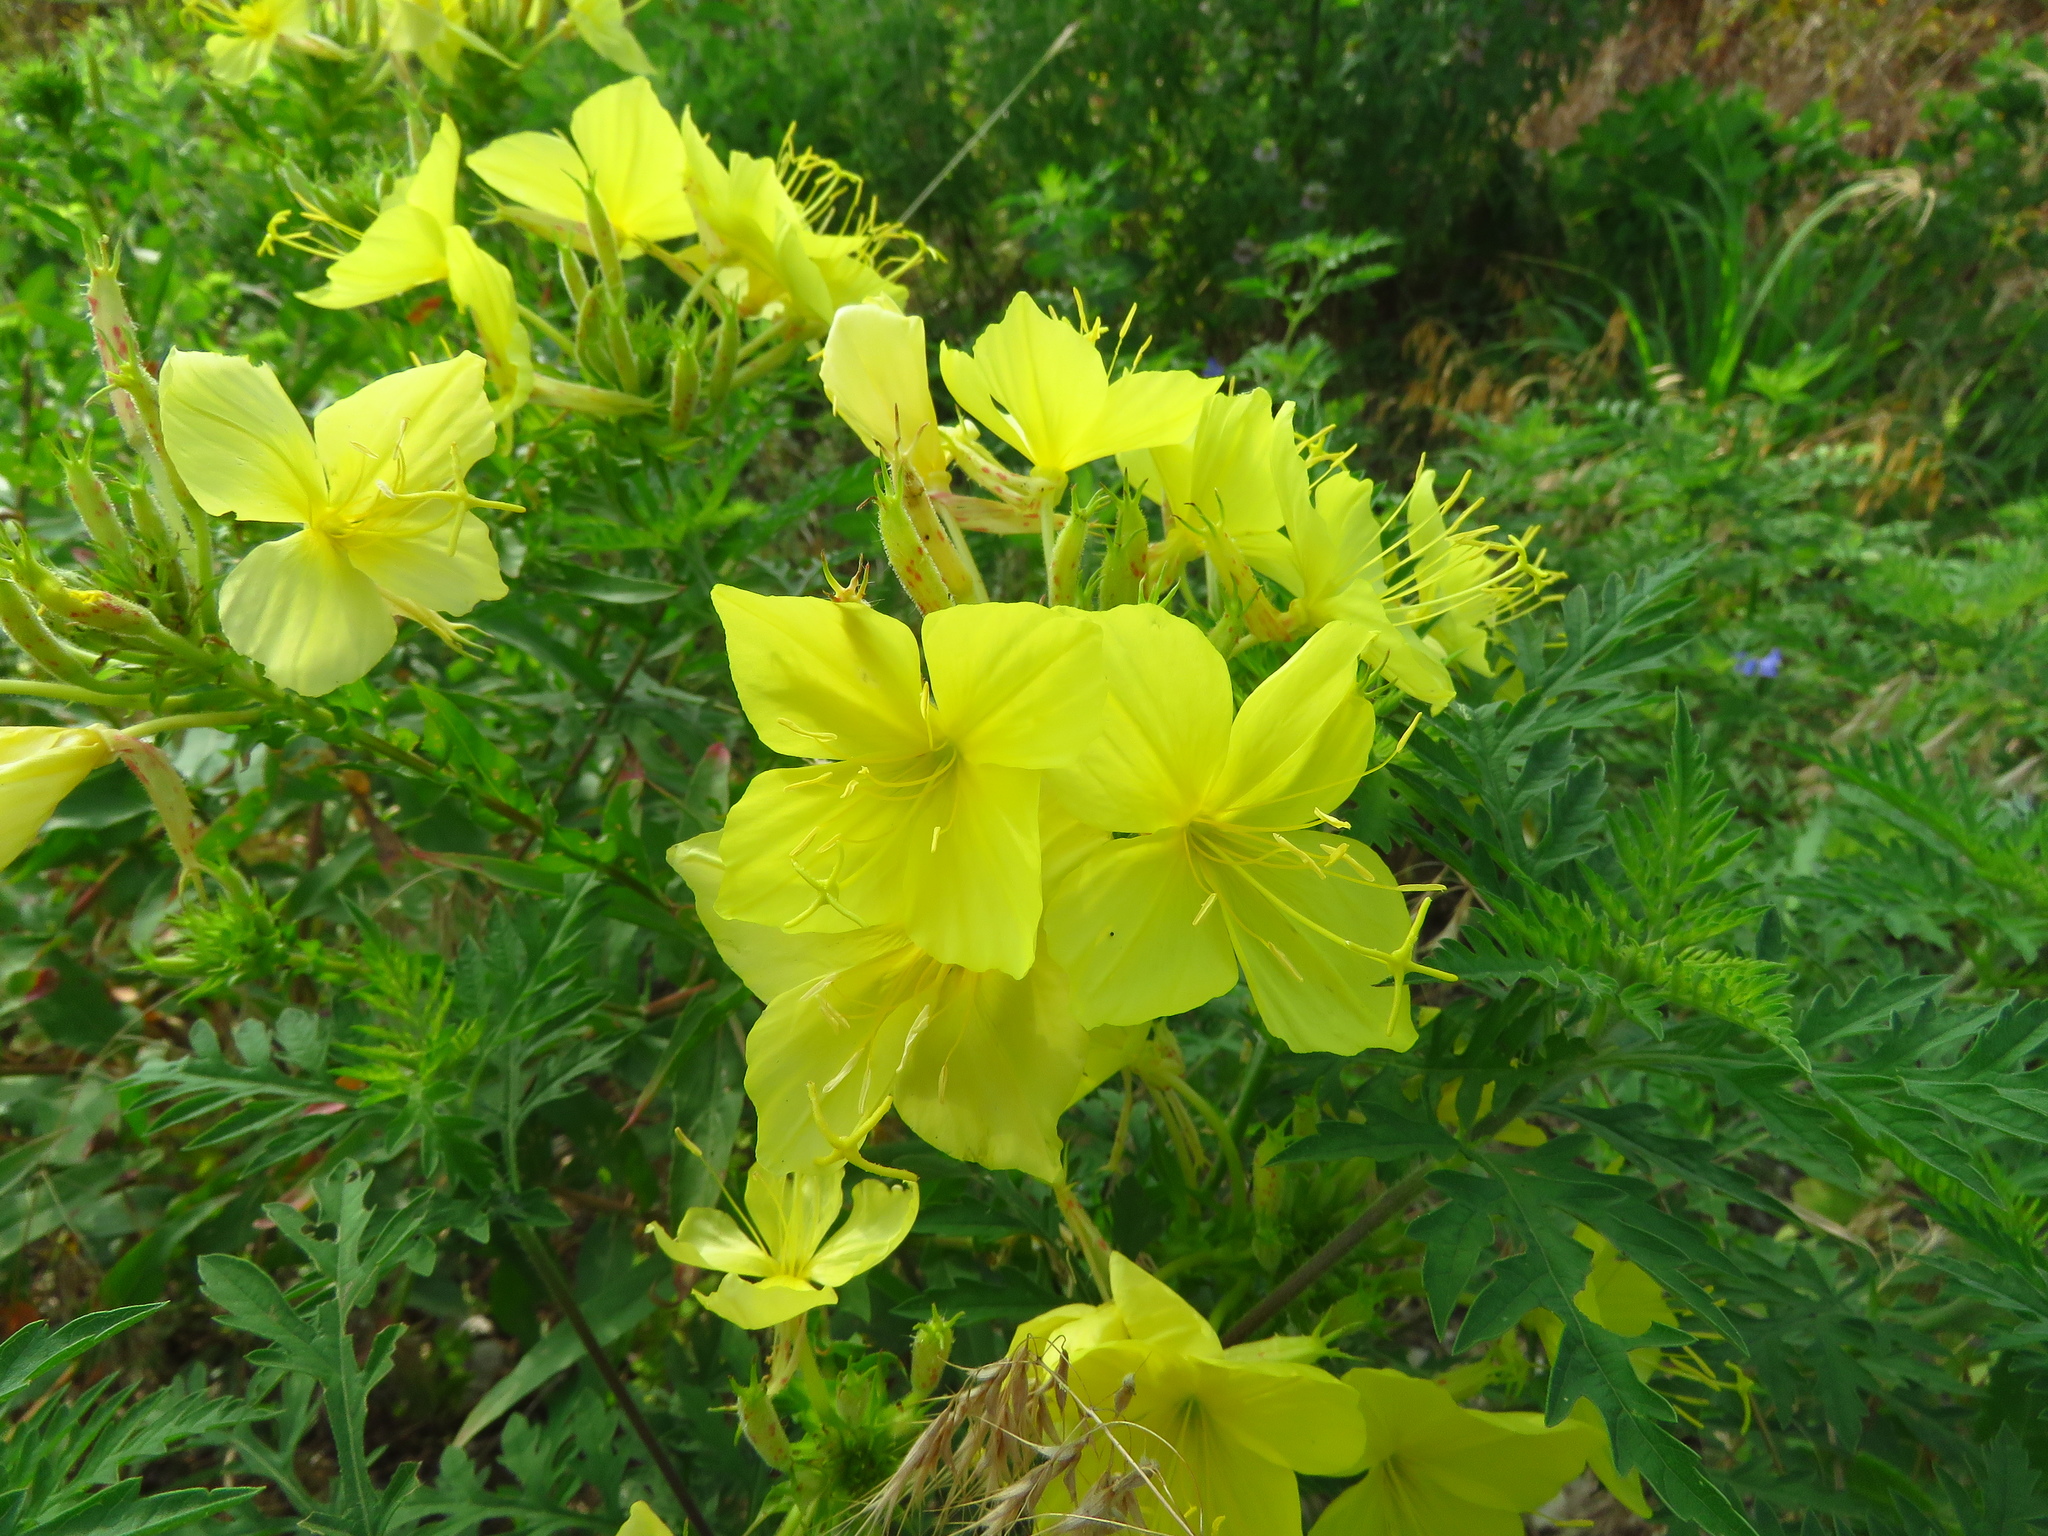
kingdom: Plantae
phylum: Tracheophyta
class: Magnoliopsida
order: Myrtales
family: Onagraceae
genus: Oenothera
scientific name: Oenothera rhombipetala
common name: Four-points evening-primrose
